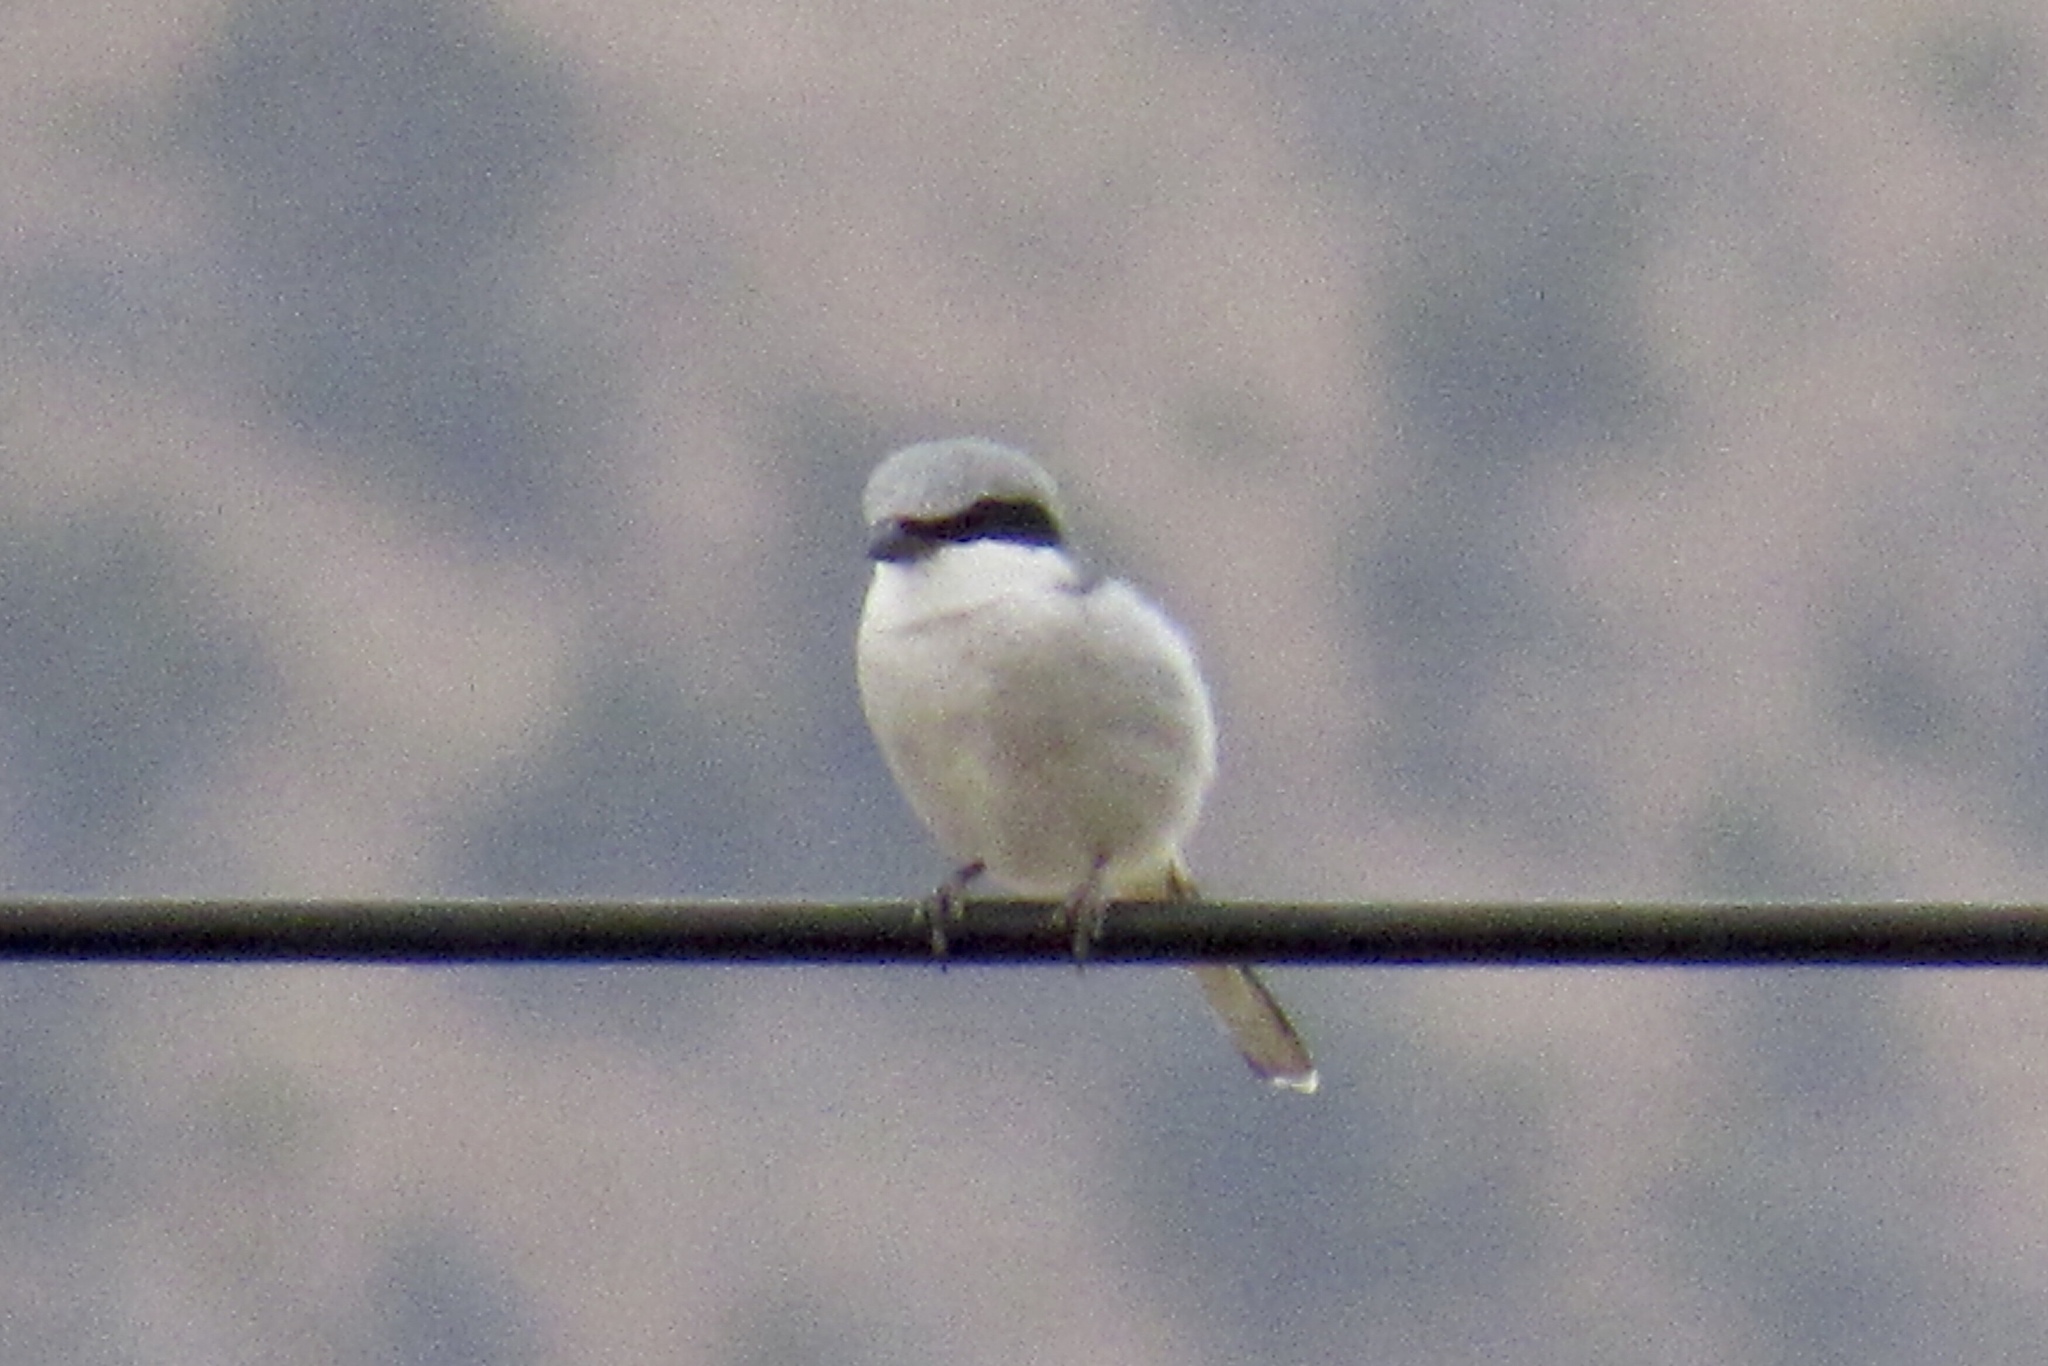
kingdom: Animalia
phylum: Chordata
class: Aves
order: Passeriformes
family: Laniidae
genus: Lanius
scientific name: Lanius ludovicianus
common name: Loggerhead shrike
